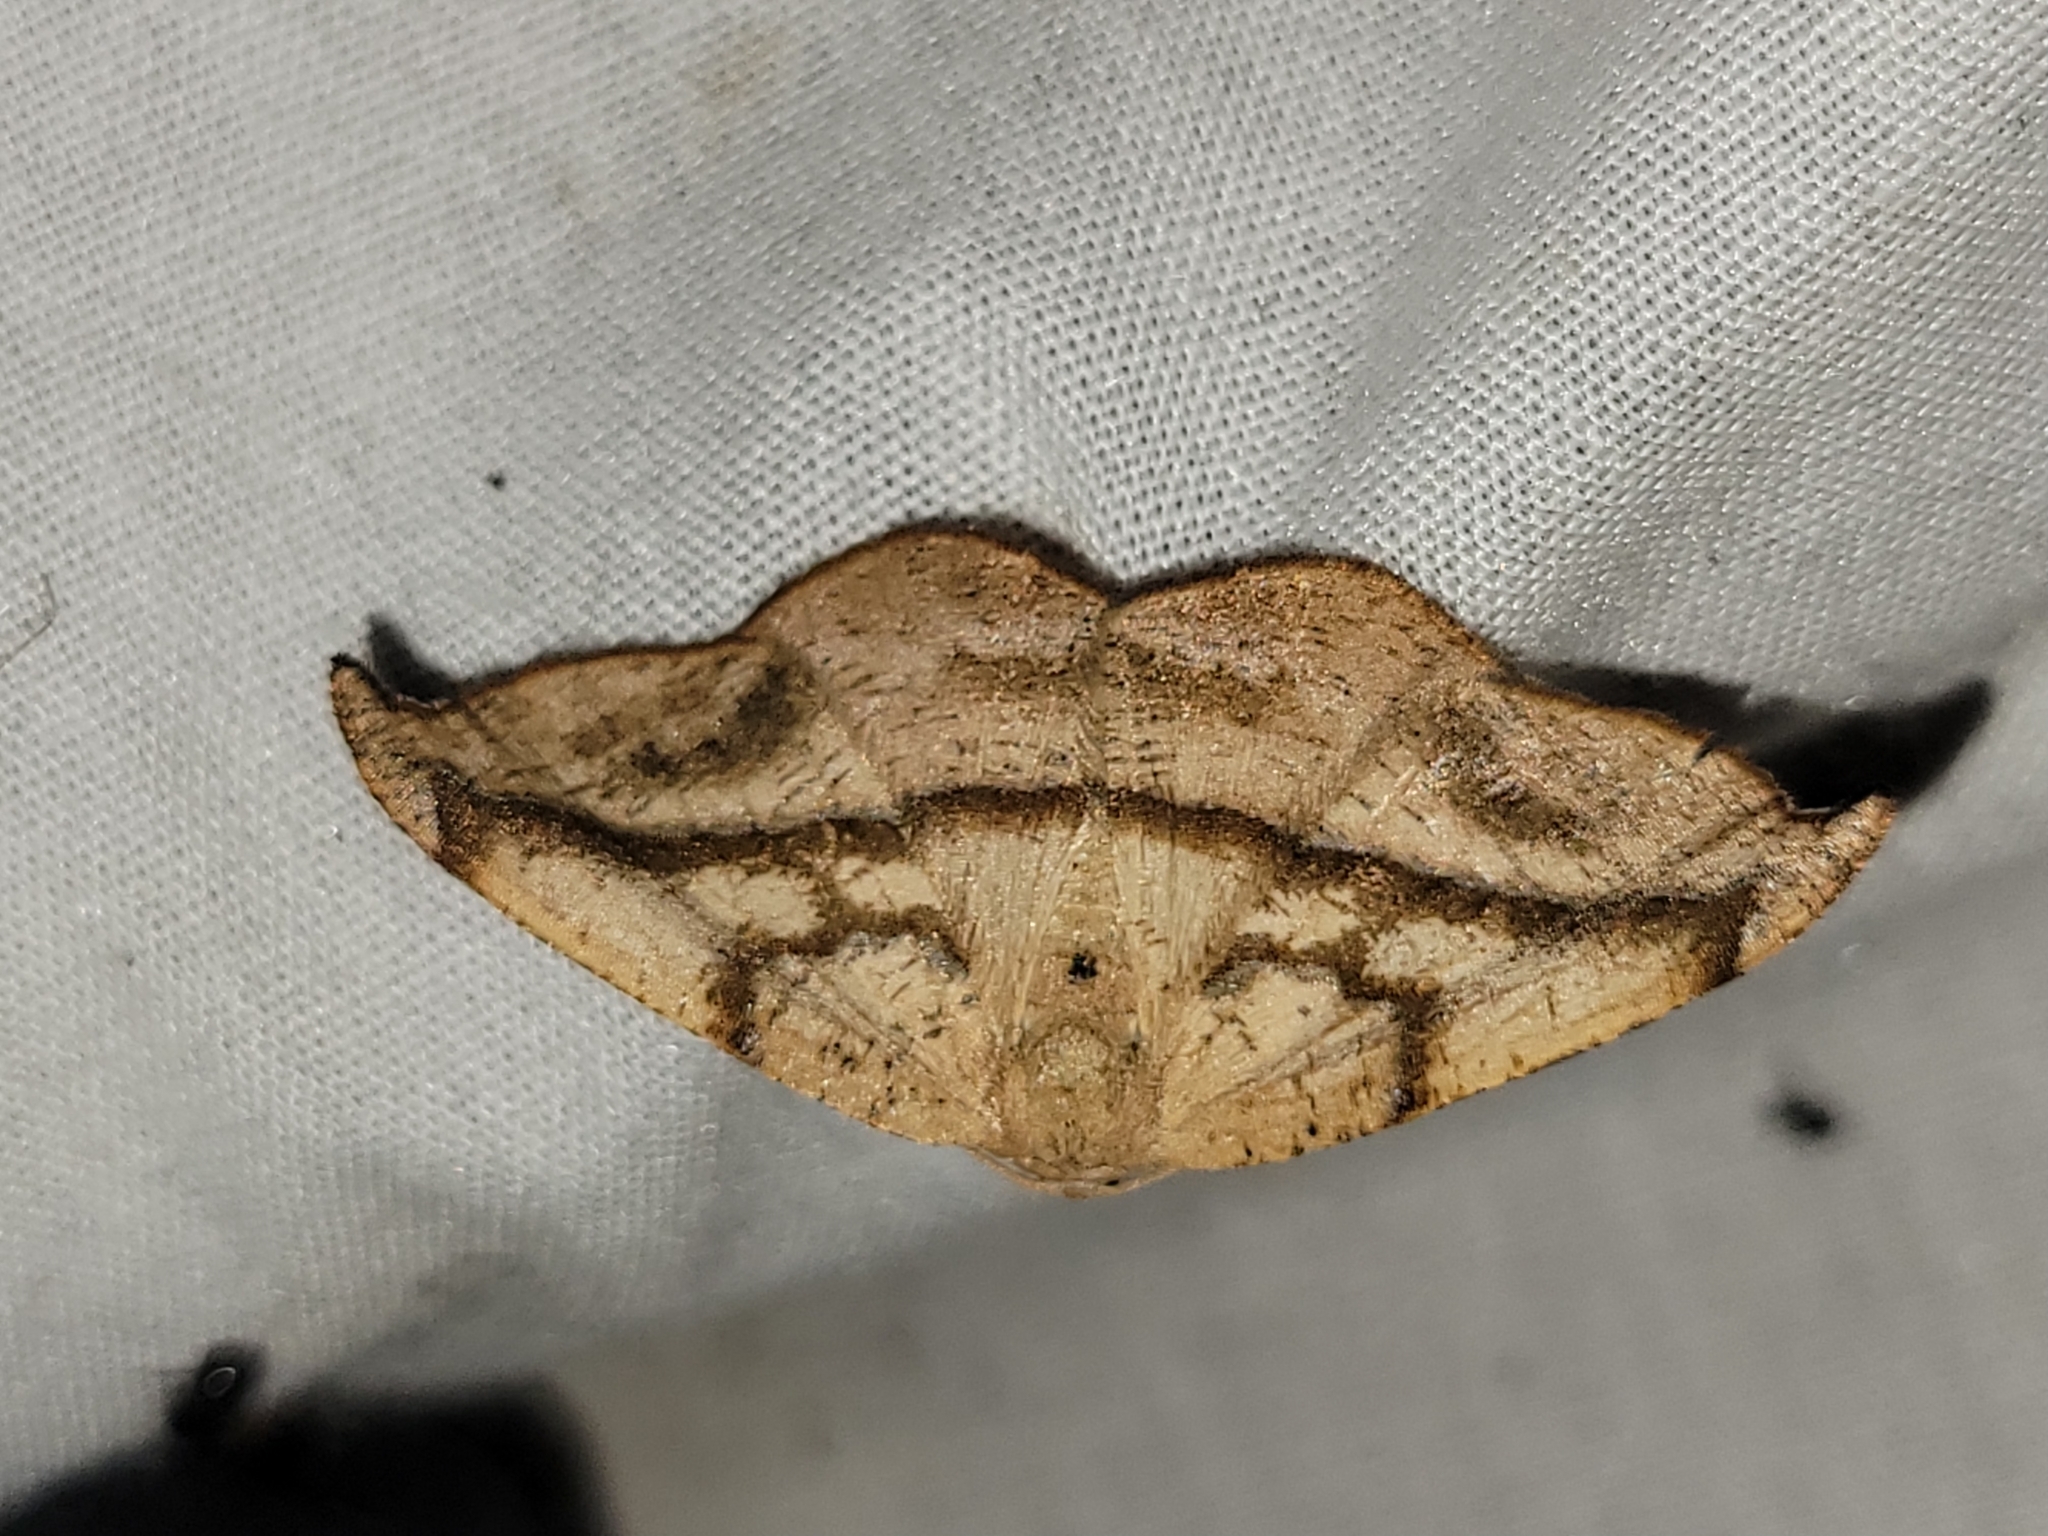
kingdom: Animalia
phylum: Arthropoda
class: Insecta
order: Lepidoptera
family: Geometridae
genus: Patalene
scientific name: Patalene olyzonaria
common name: Juniper geometer moth
